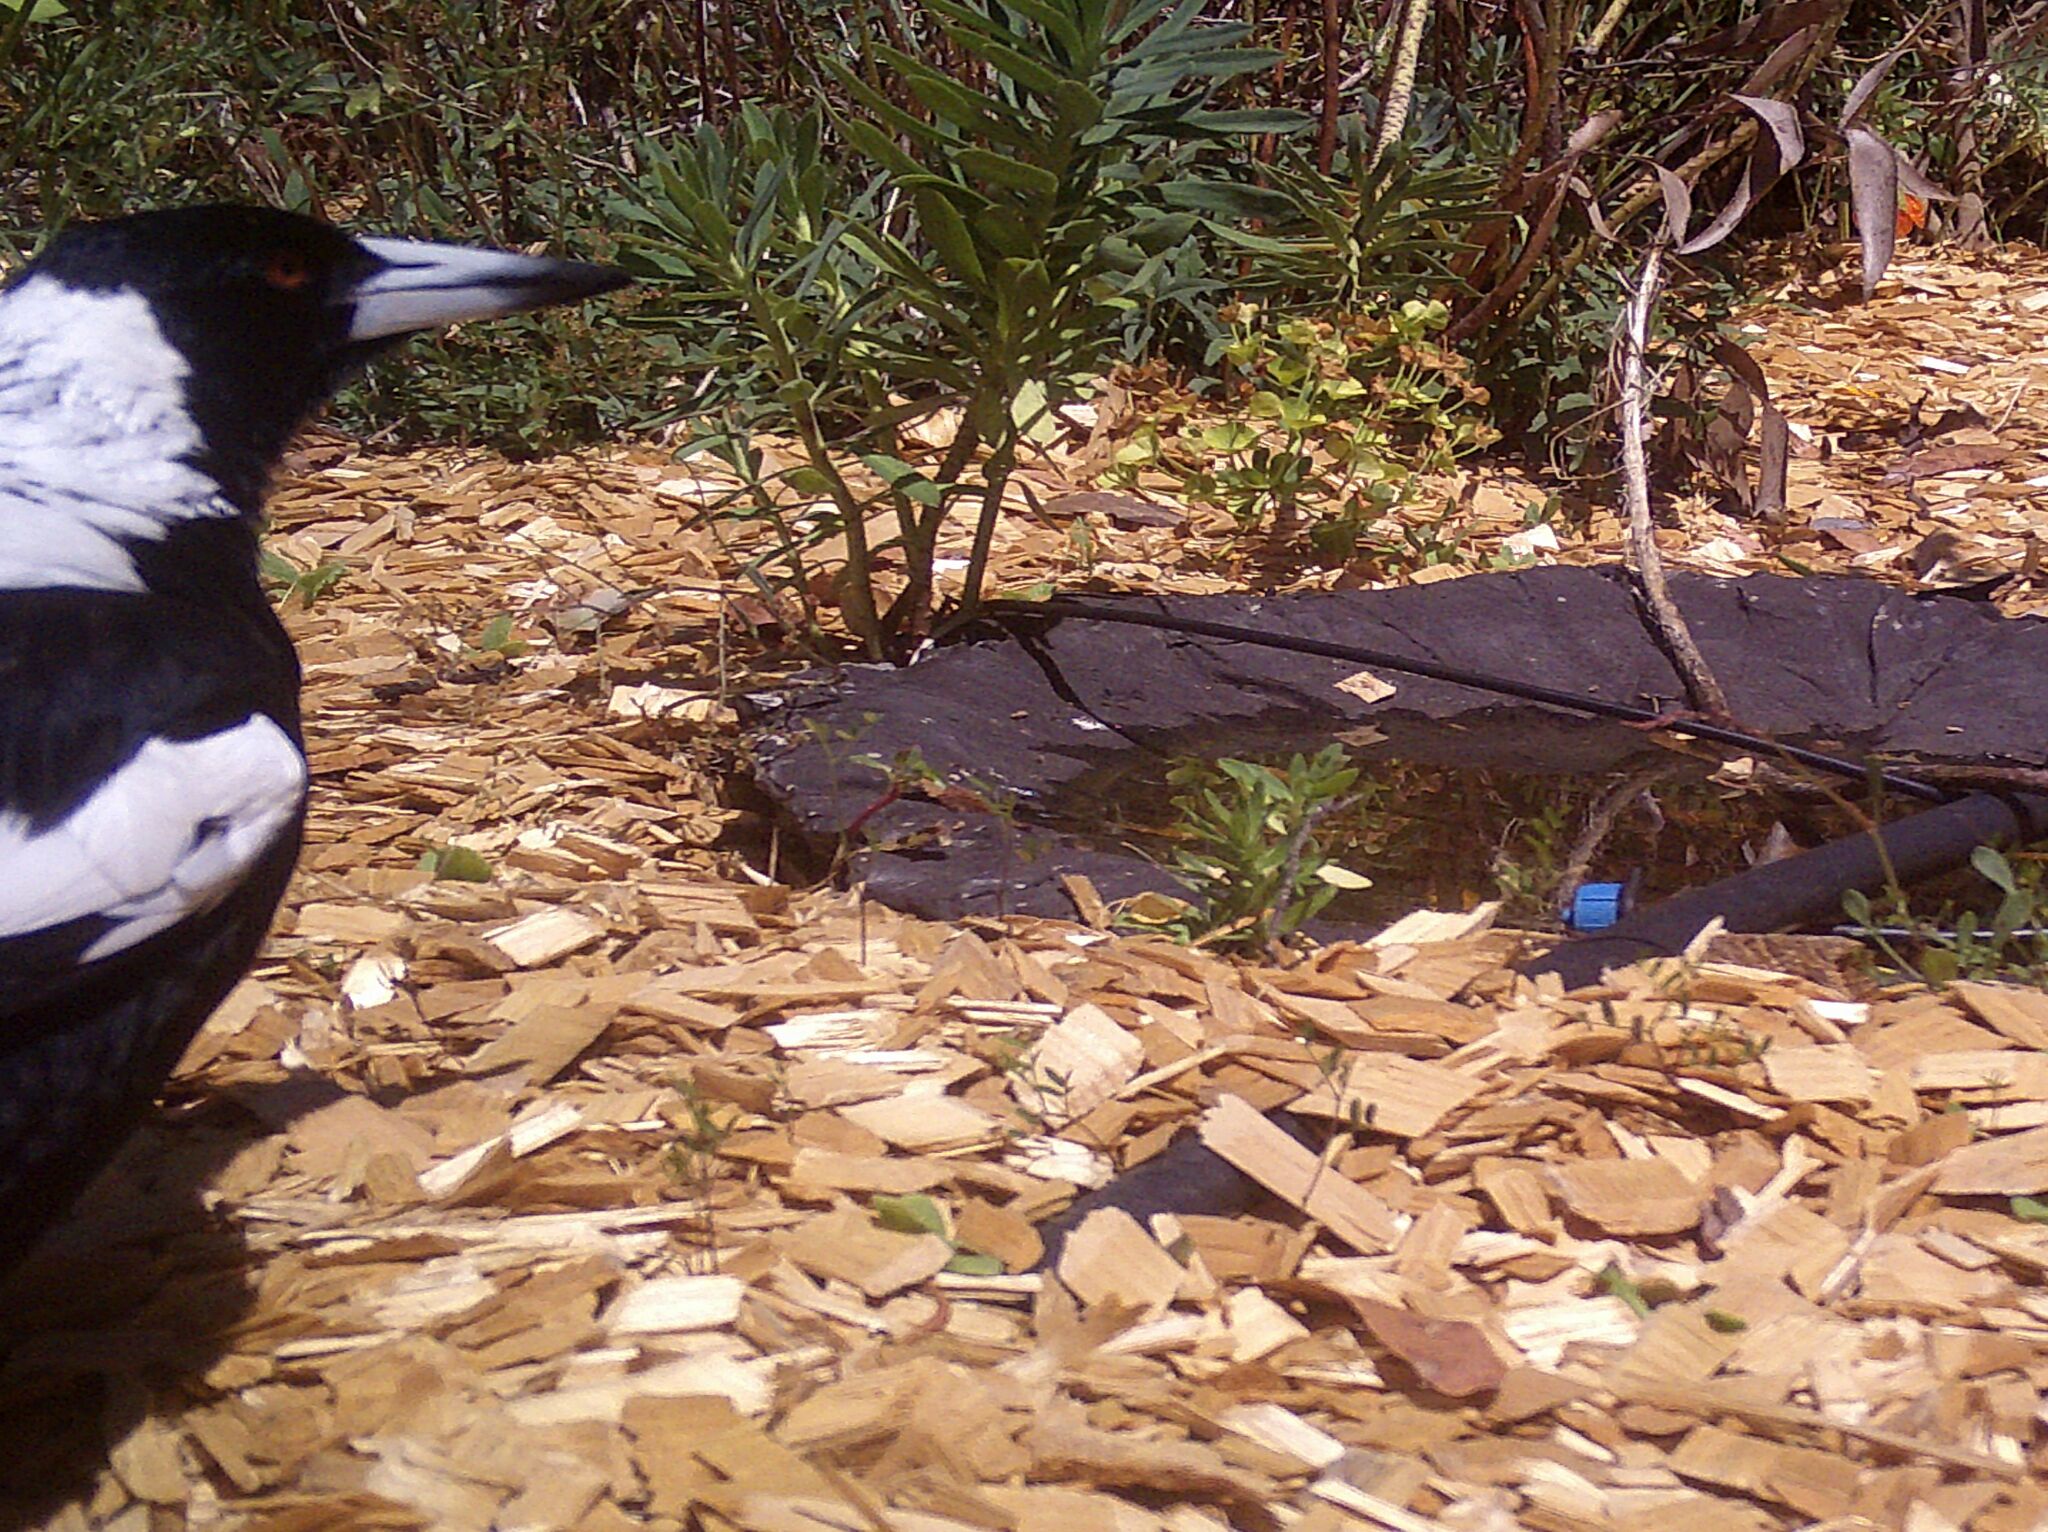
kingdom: Animalia
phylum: Chordata
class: Aves
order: Passeriformes
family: Cracticidae
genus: Gymnorhina
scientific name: Gymnorhina tibicen
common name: Australian magpie
